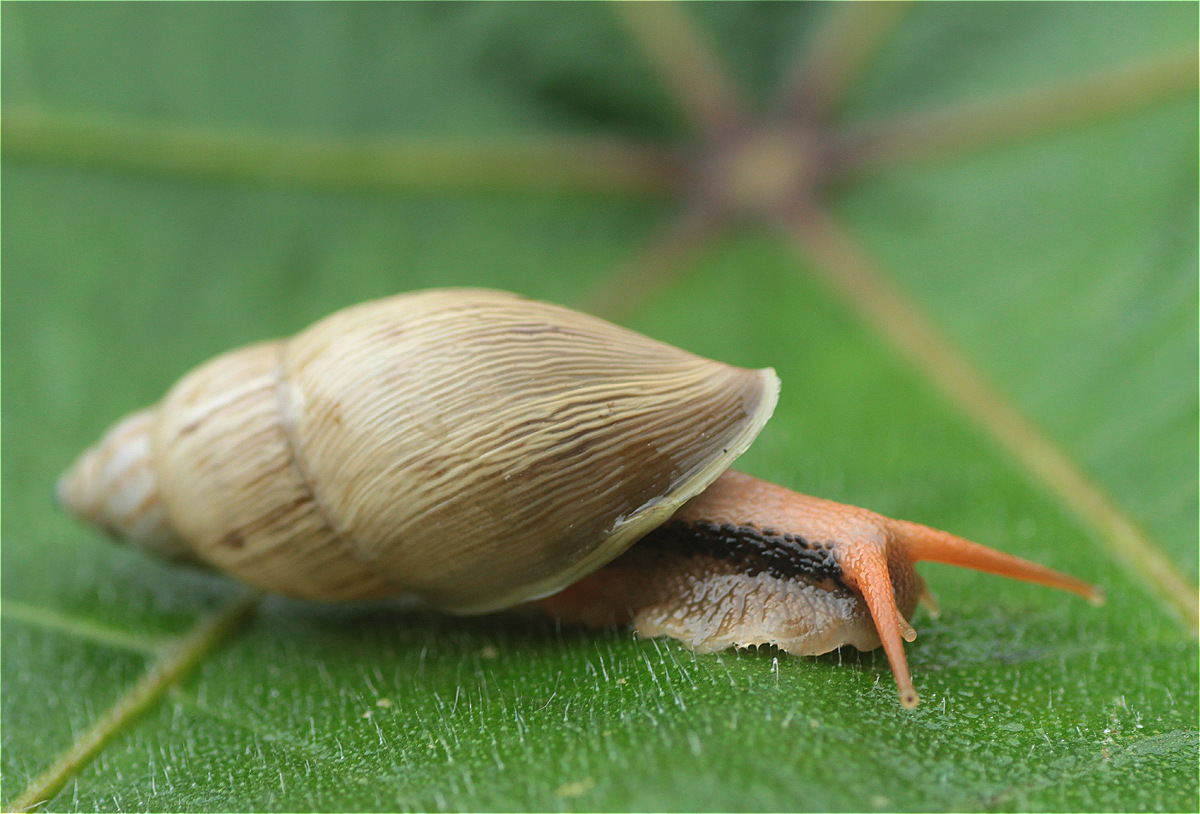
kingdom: Animalia
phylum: Mollusca
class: Gastropoda
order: Stylommatophora
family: Bulimulidae
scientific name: Bulimulidae
